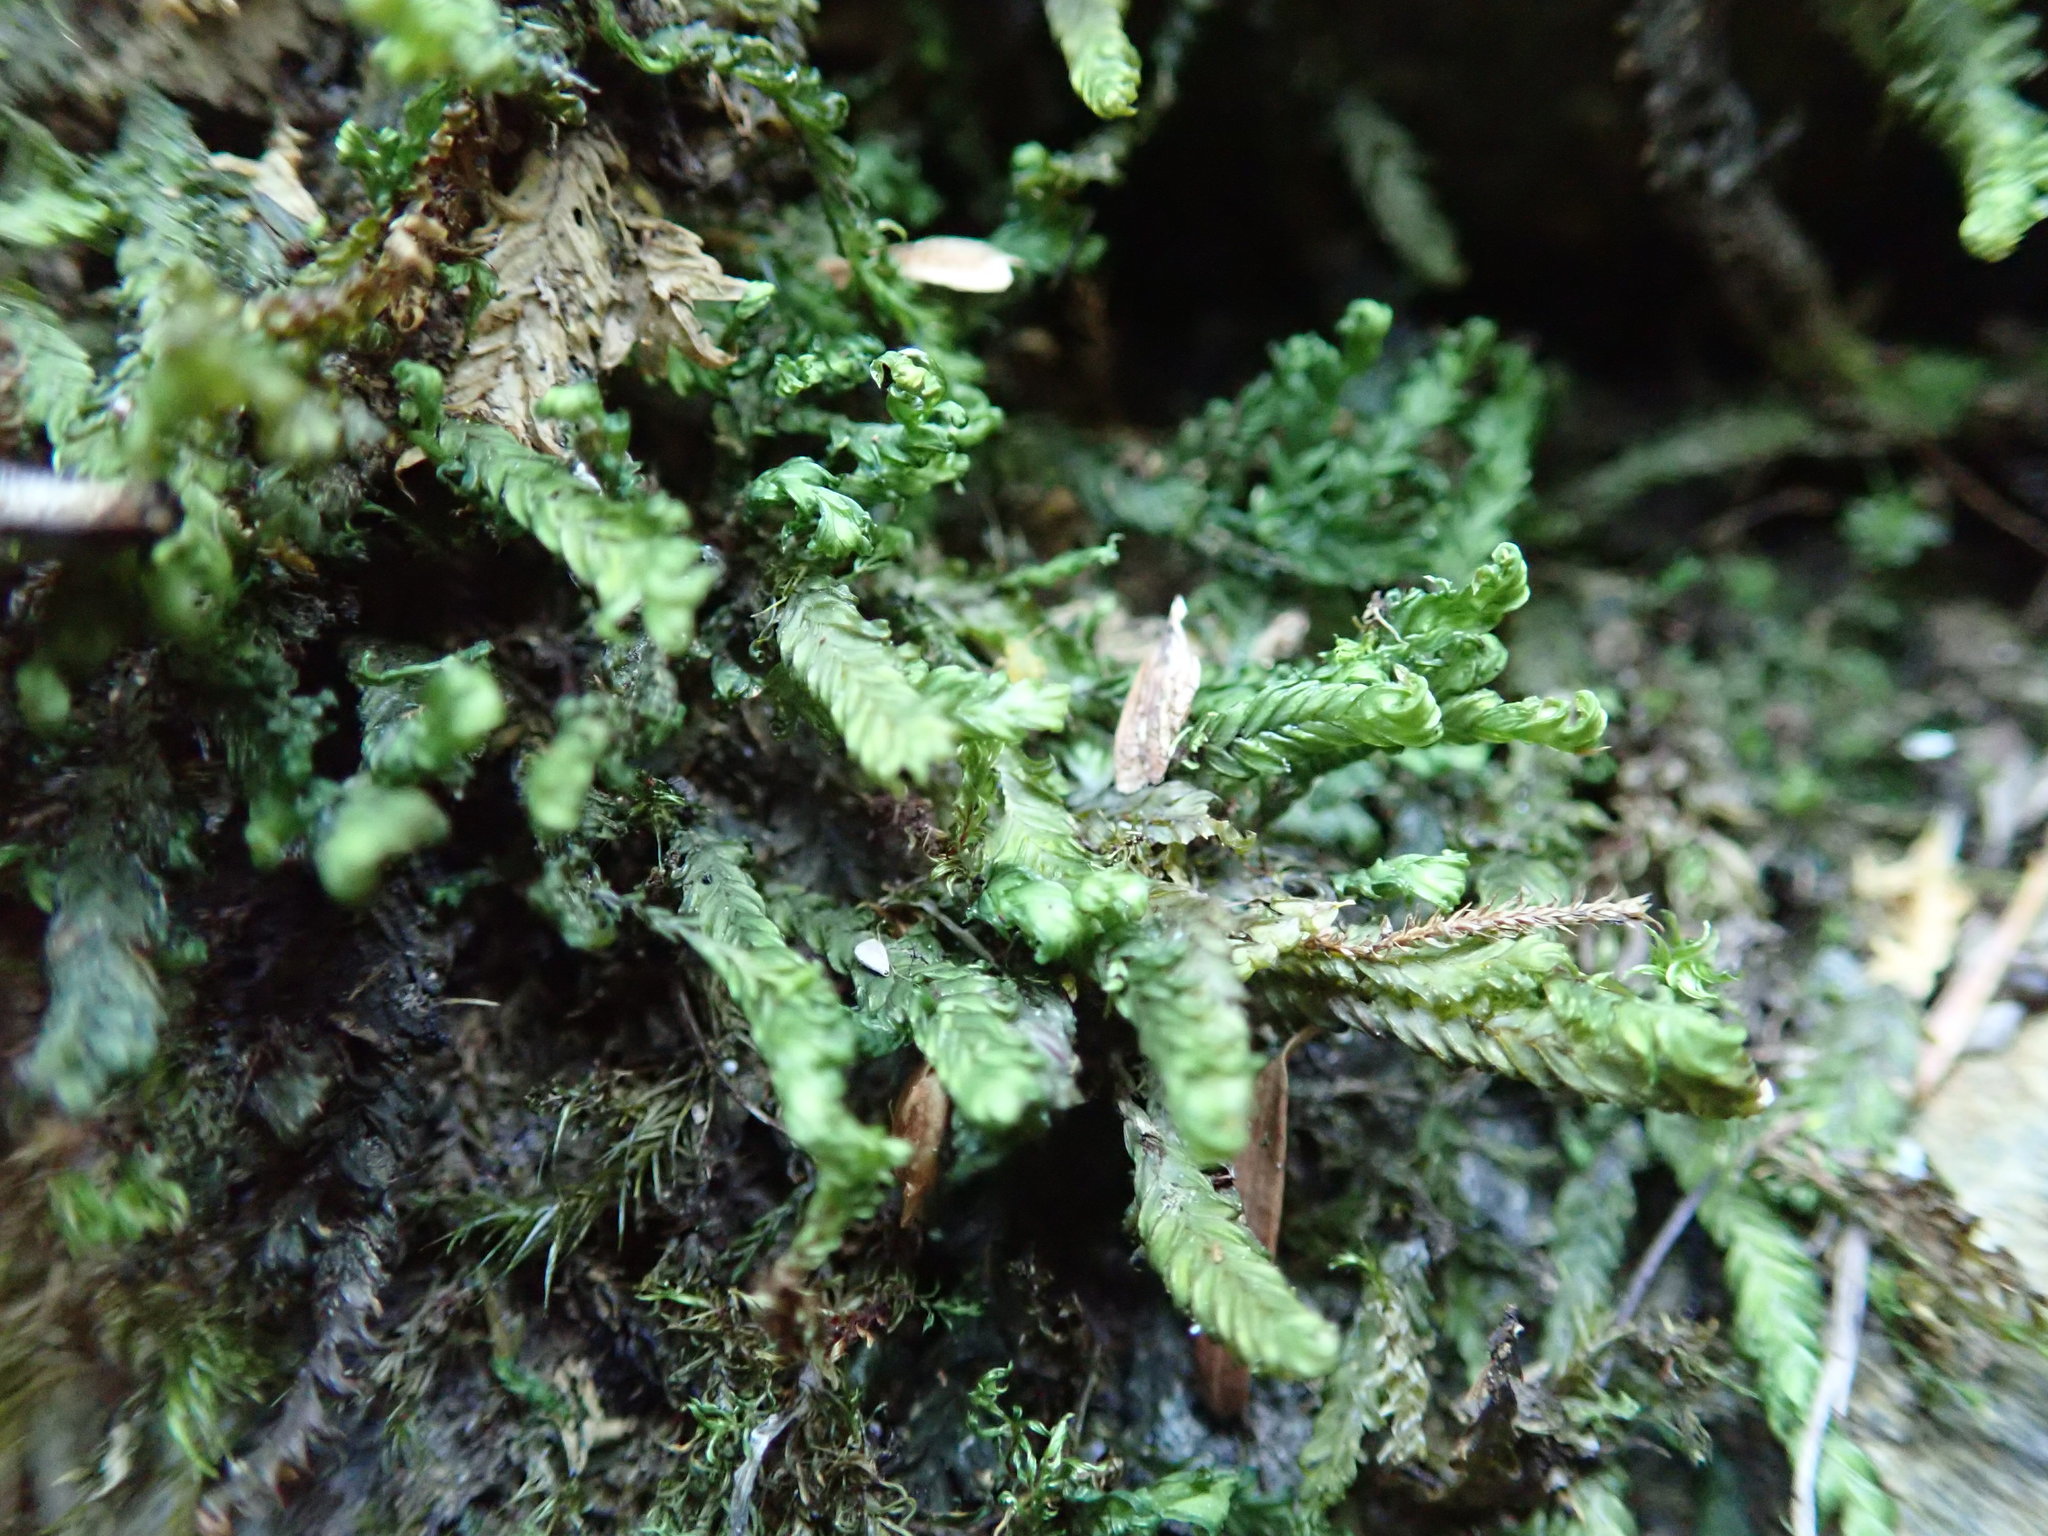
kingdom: Plantae
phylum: Bryophyta
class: Bryopsida
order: Dicranales
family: Fissidentaceae
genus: Fissidens
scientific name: Fissidens adianthoides
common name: Maidenhair pocket moss
